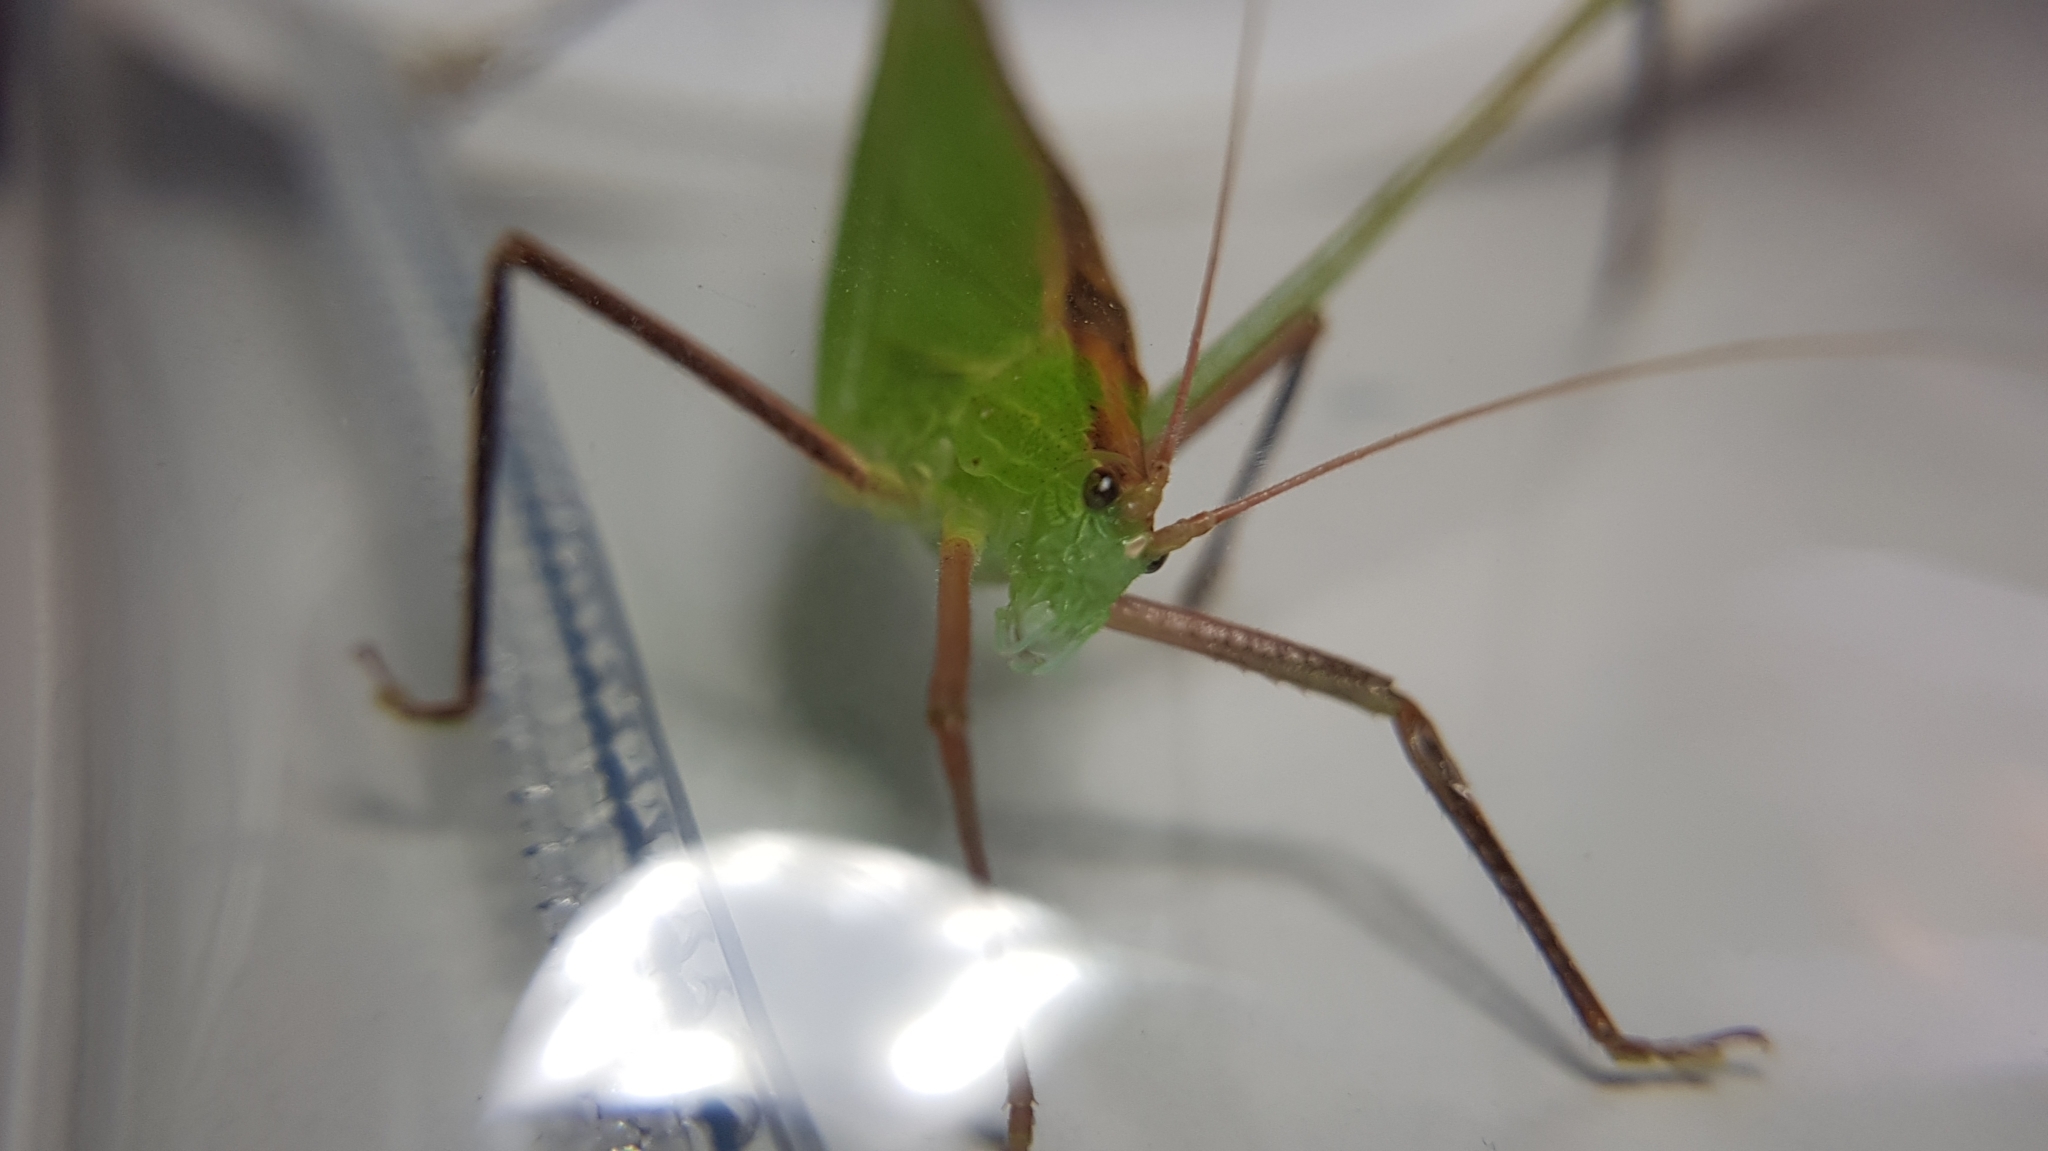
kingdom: Animalia
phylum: Arthropoda
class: Insecta
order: Orthoptera
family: Tettigoniidae
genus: Ducetia
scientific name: Ducetia antipoda
